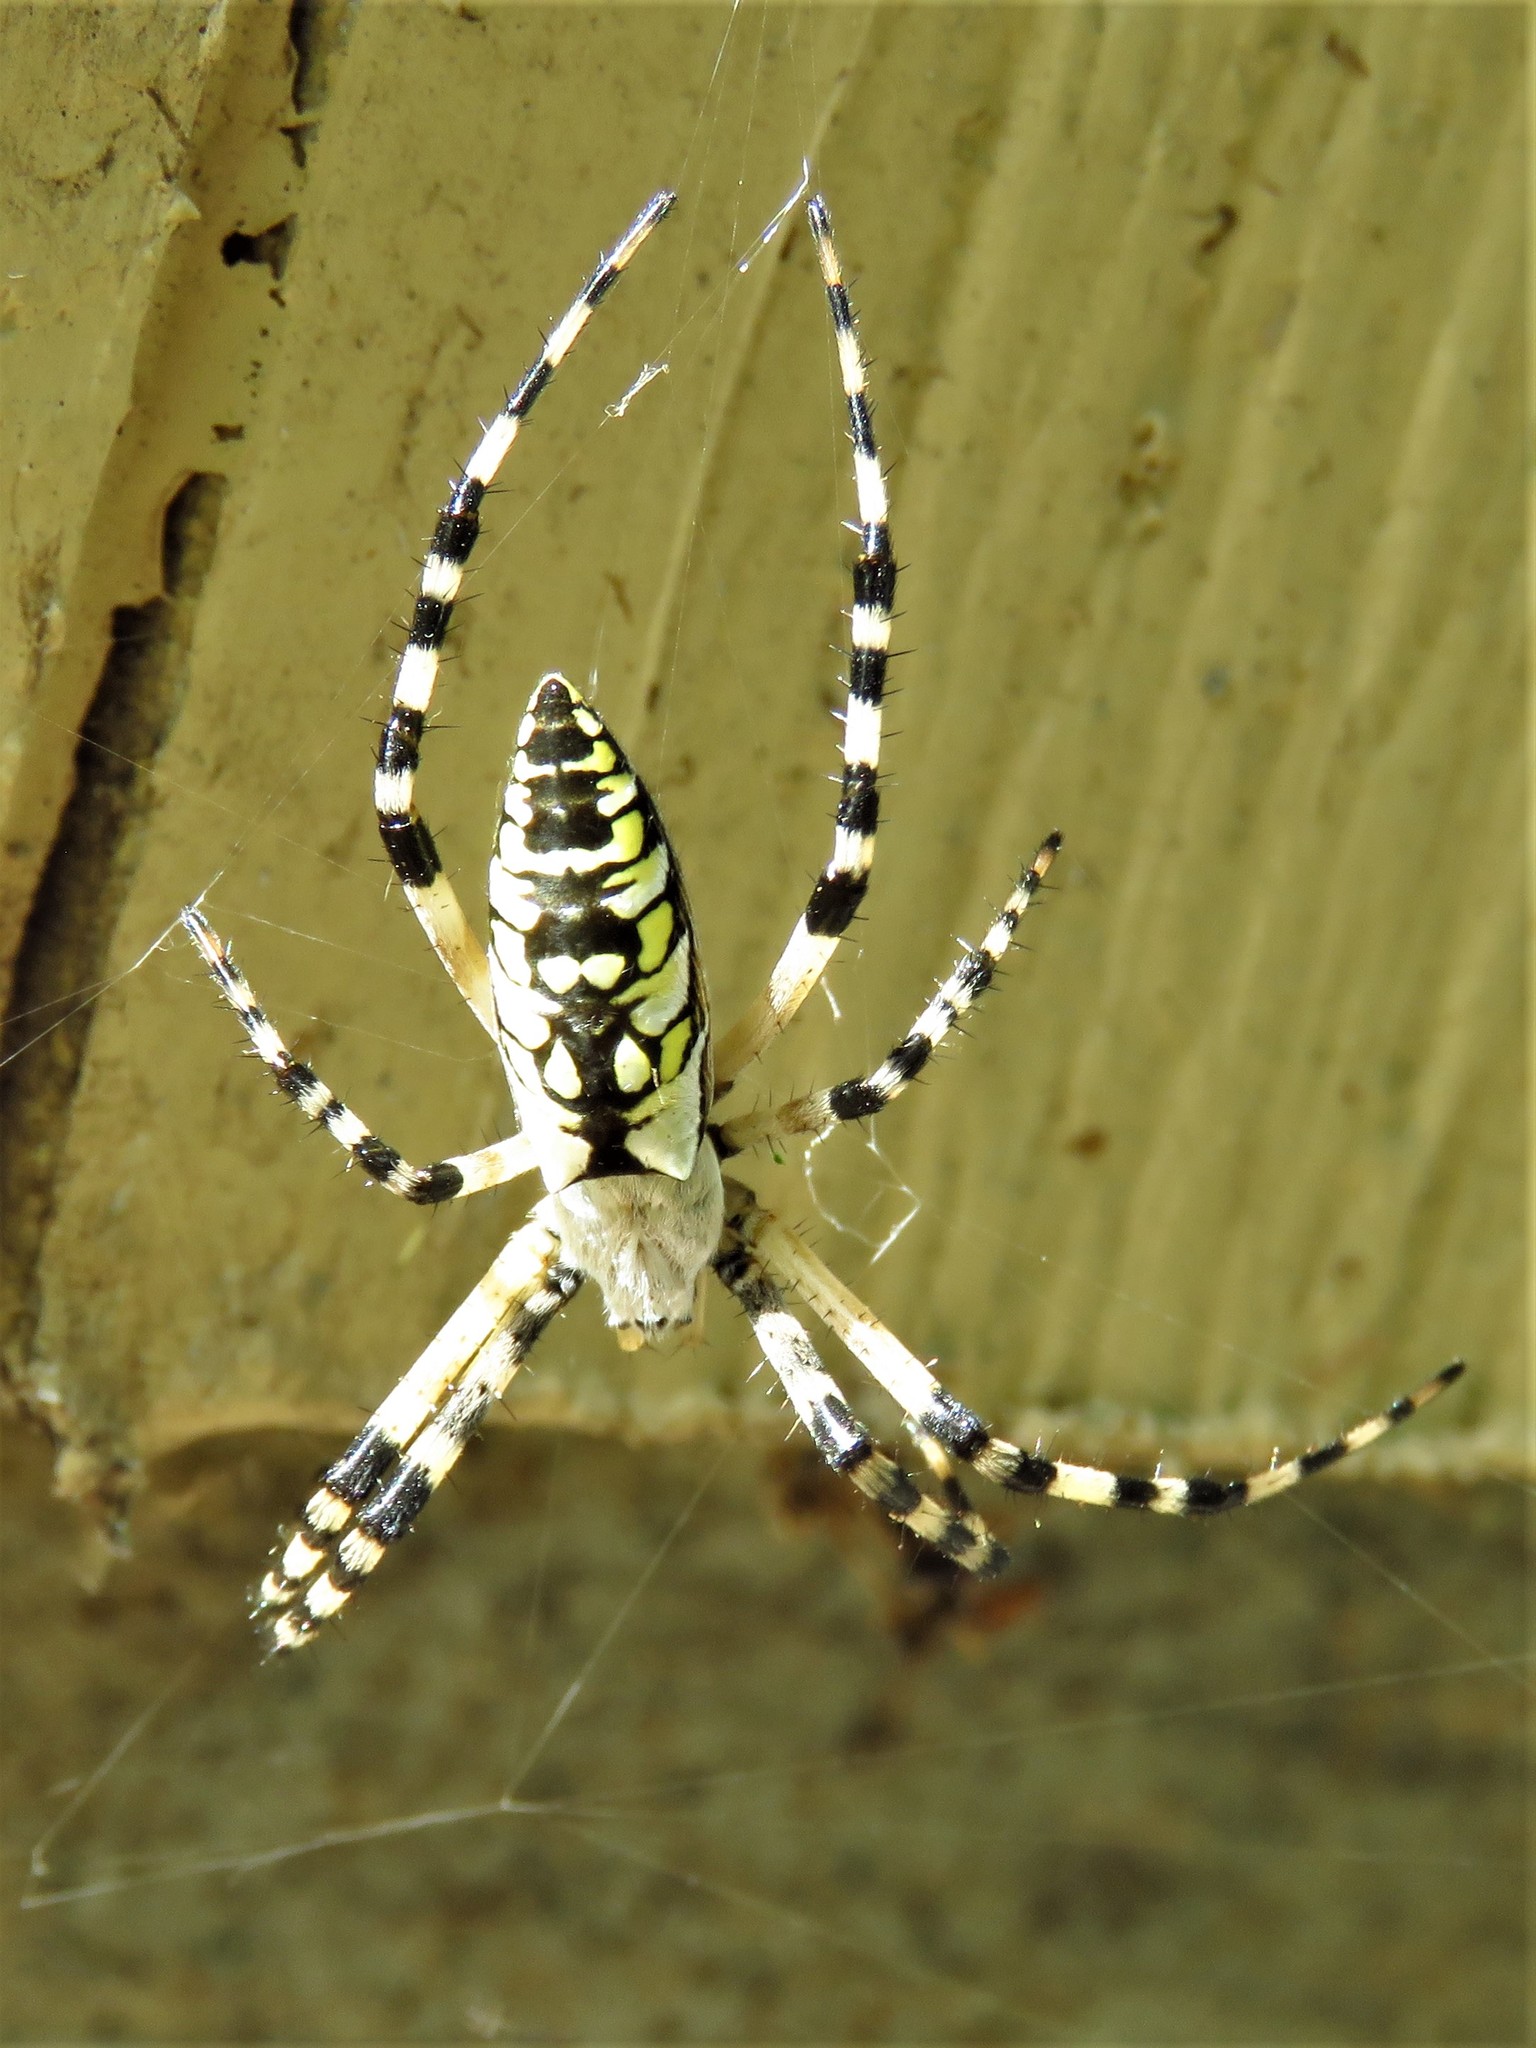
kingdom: Animalia
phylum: Arthropoda
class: Arachnida
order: Araneae
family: Araneidae
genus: Argiope
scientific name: Argiope aurantia
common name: Orb weavers
